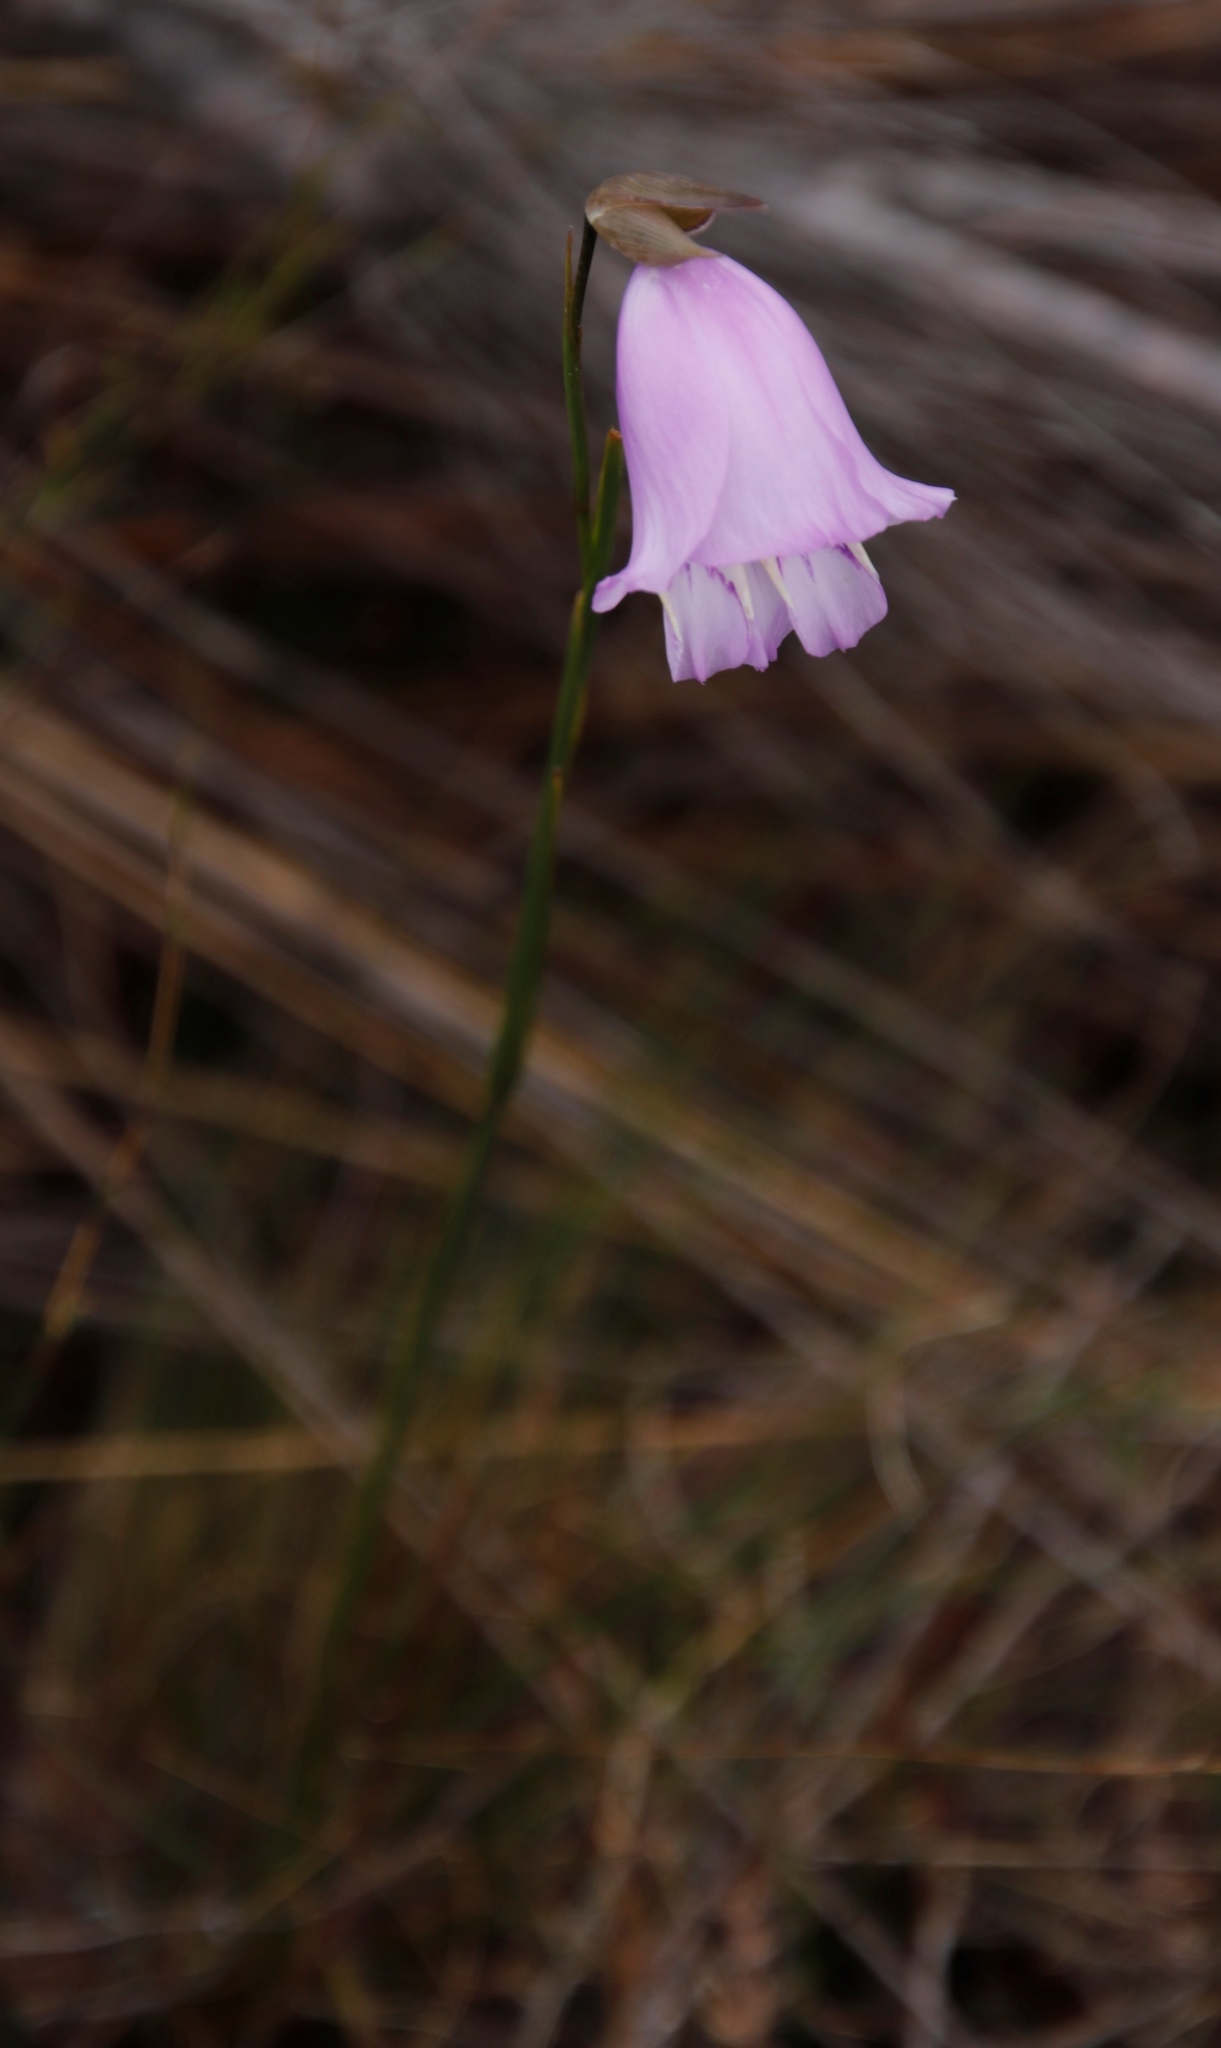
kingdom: Plantae
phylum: Tracheophyta
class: Liliopsida
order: Asparagales
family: Iridaceae
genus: Gladiolus
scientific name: Gladiolus bullatus
